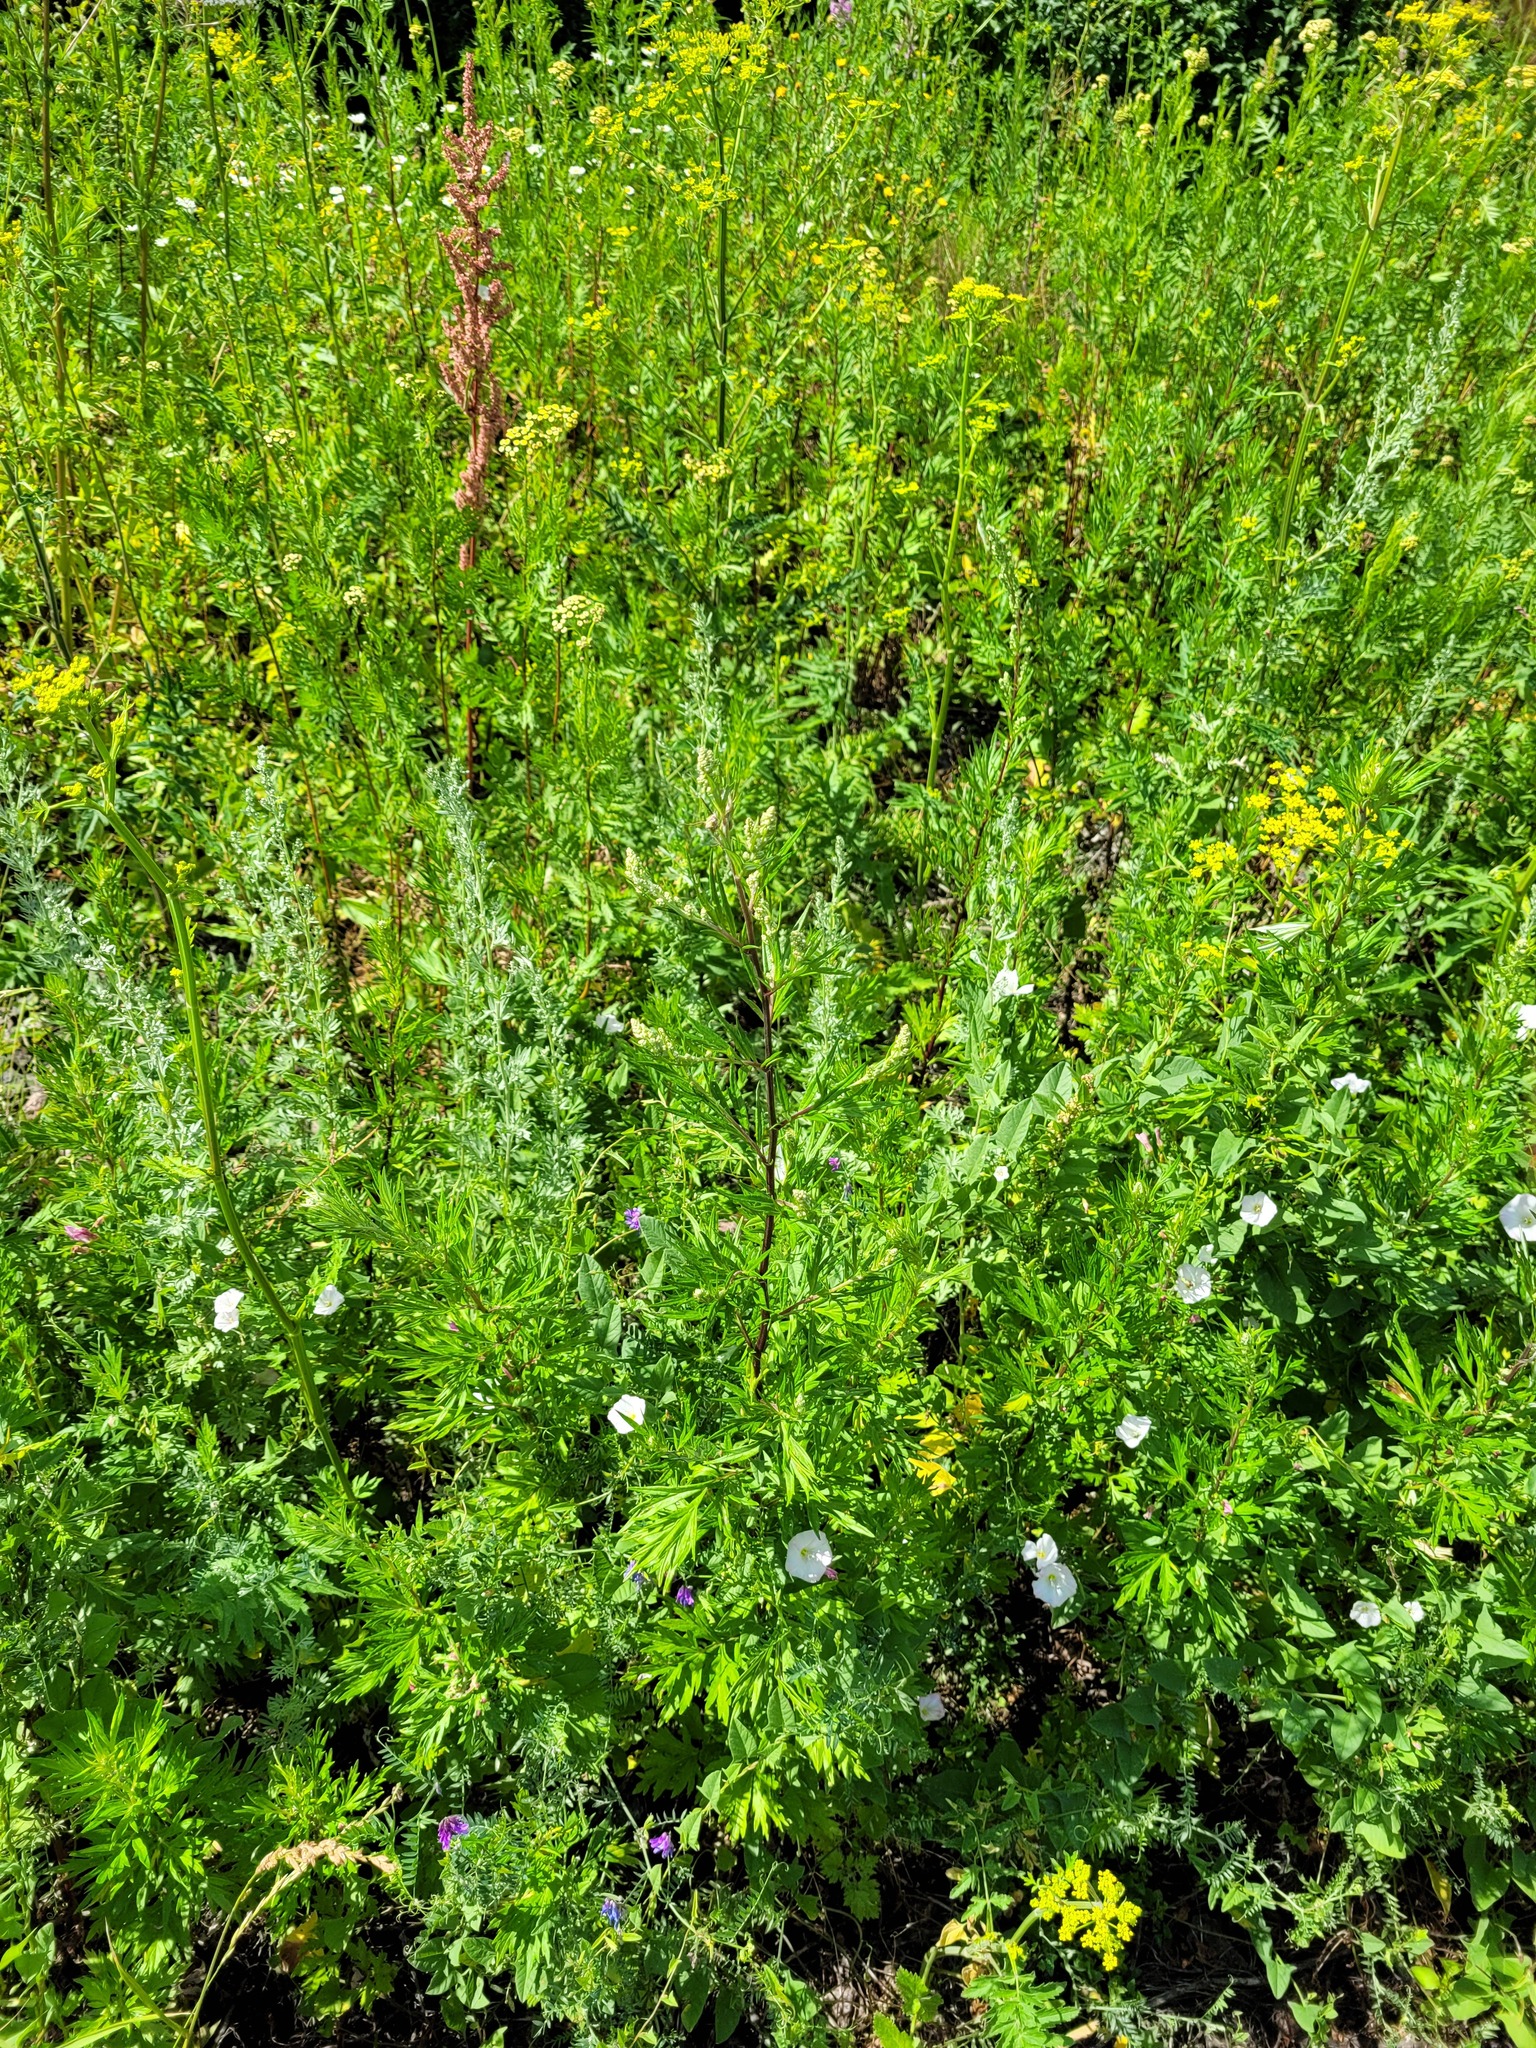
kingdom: Plantae
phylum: Tracheophyta
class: Magnoliopsida
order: Asterales
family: Asteraceae
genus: Artemisia
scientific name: Artemisia vulgaris
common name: Mugwort
